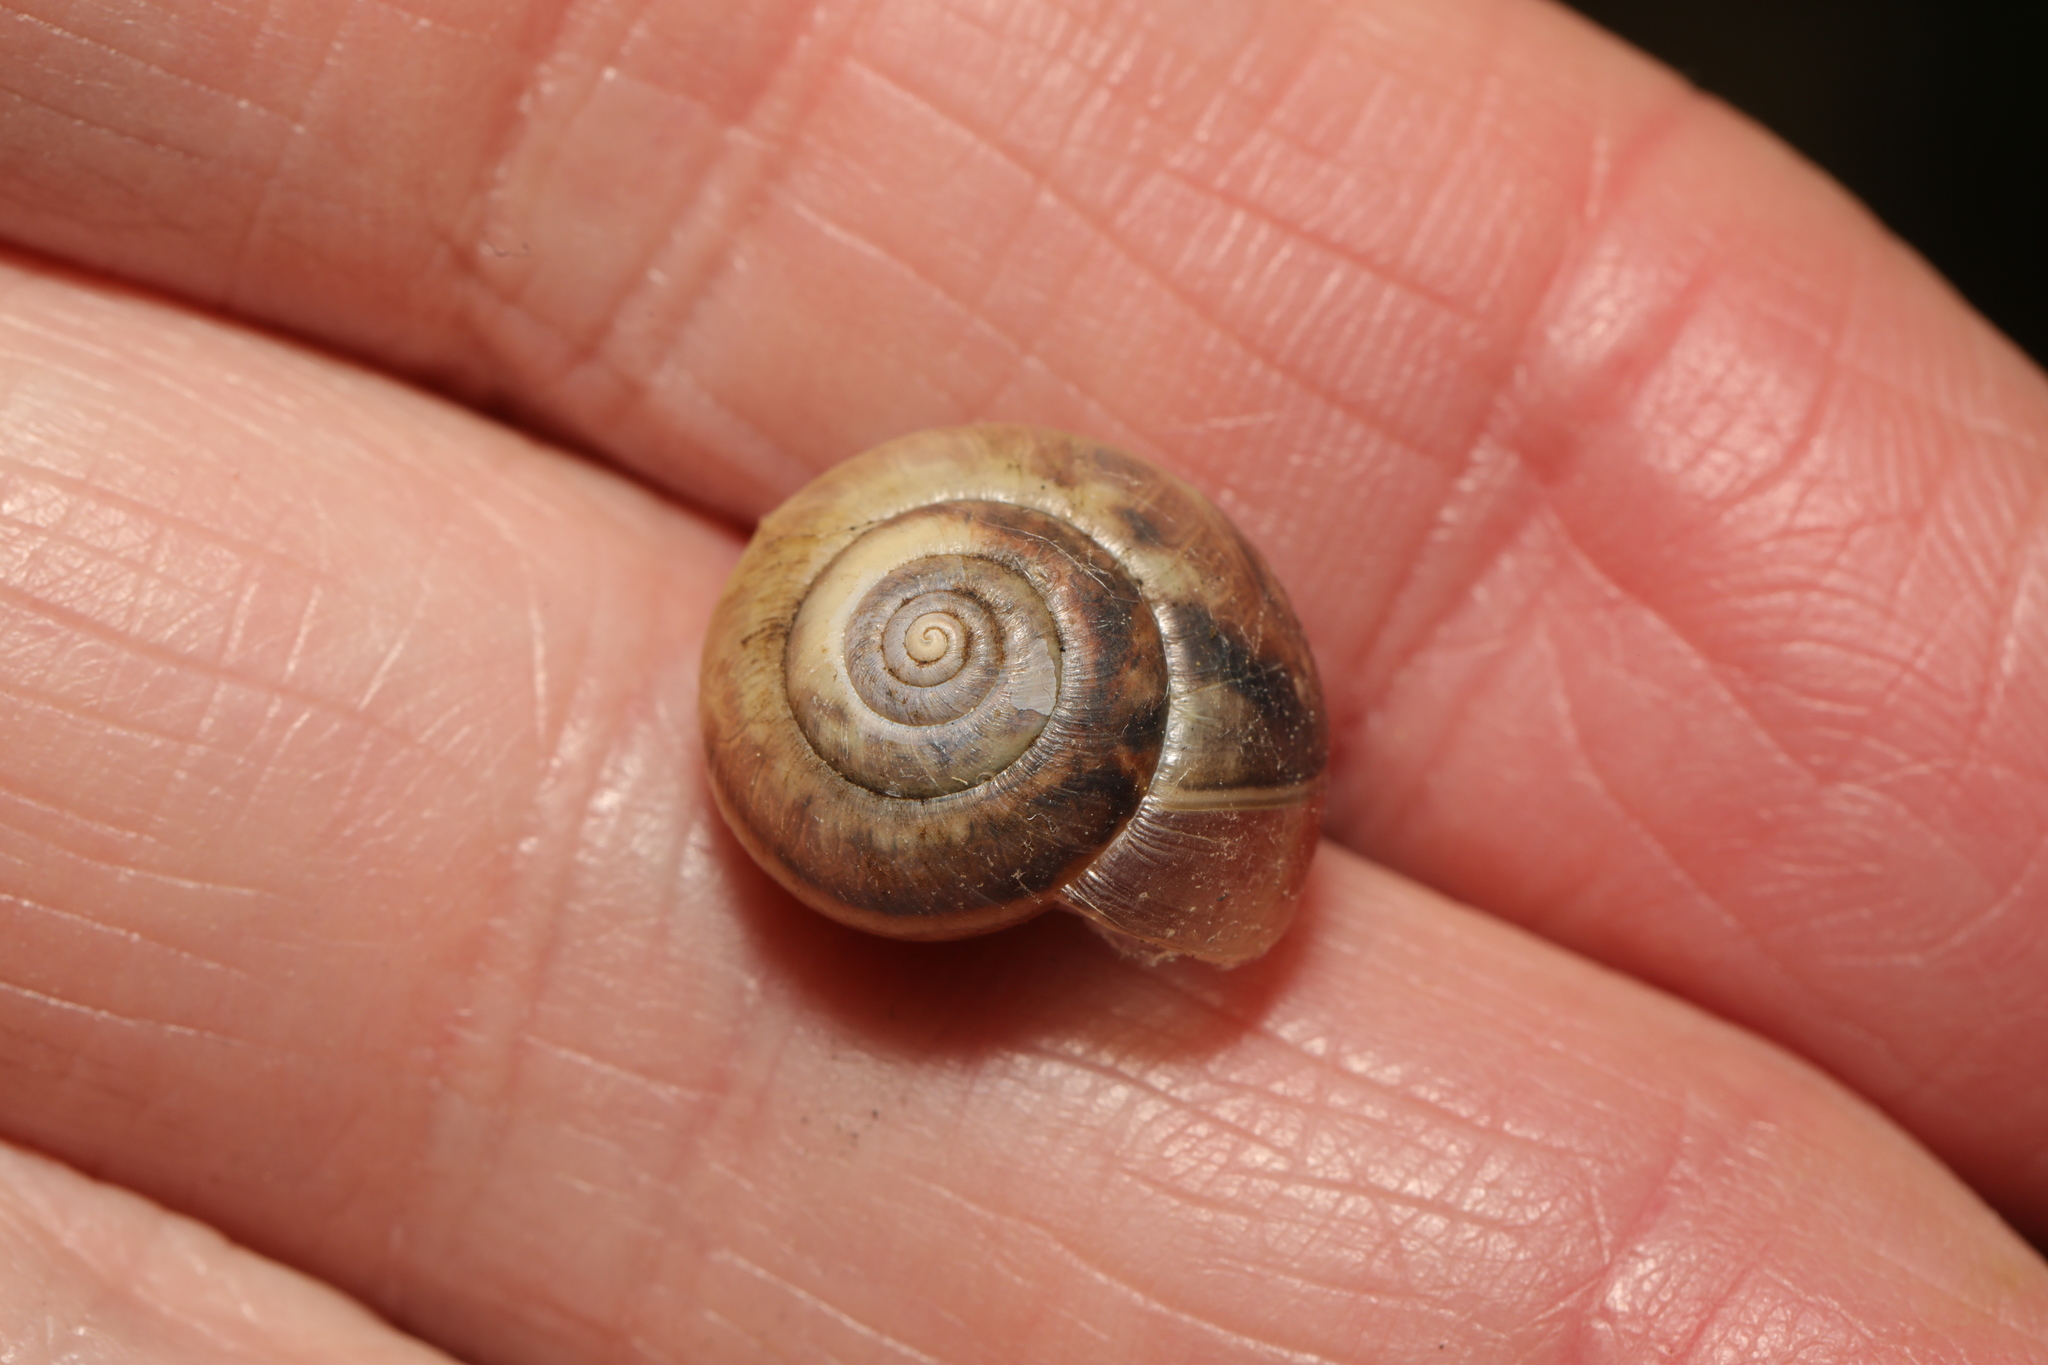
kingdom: Animalia
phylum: Mollusca
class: Gastropoda
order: Stylommatophora
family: Hygromiidae
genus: Monacha
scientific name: Monacha cantiana
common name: Kentish snail
